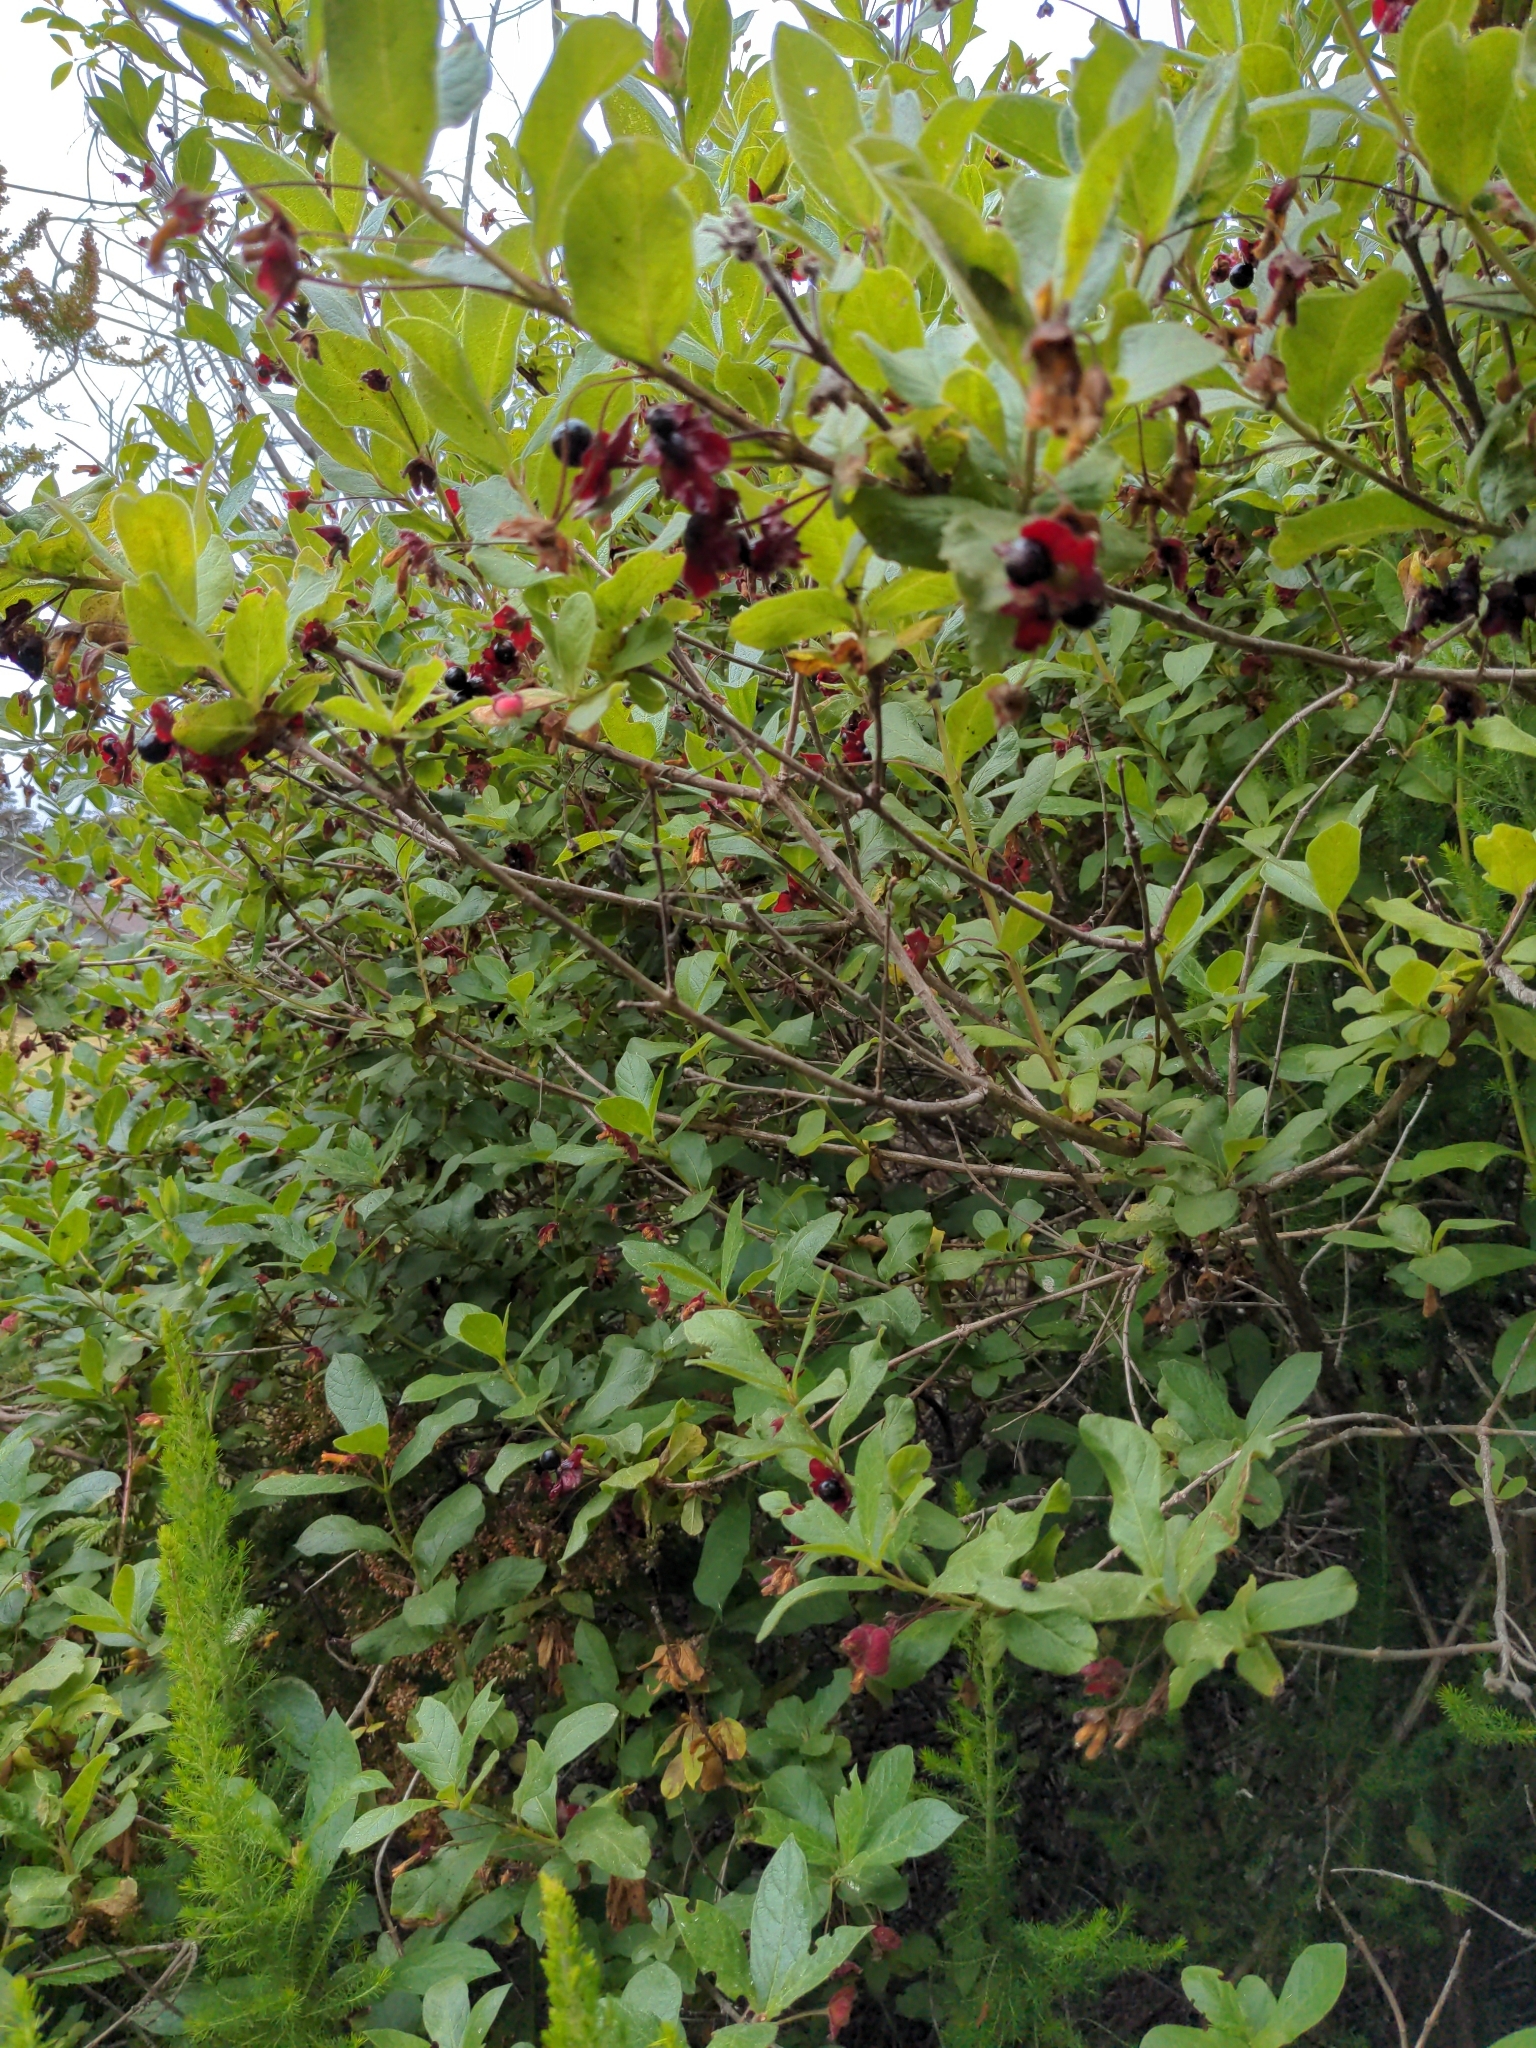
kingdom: Plantae
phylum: Tracheophyta
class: Magnoliopsida
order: Dipsacales
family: Caprifoliaceae
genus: Lonicera
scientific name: Lonicera involucrata
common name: Californian honeysuckle
